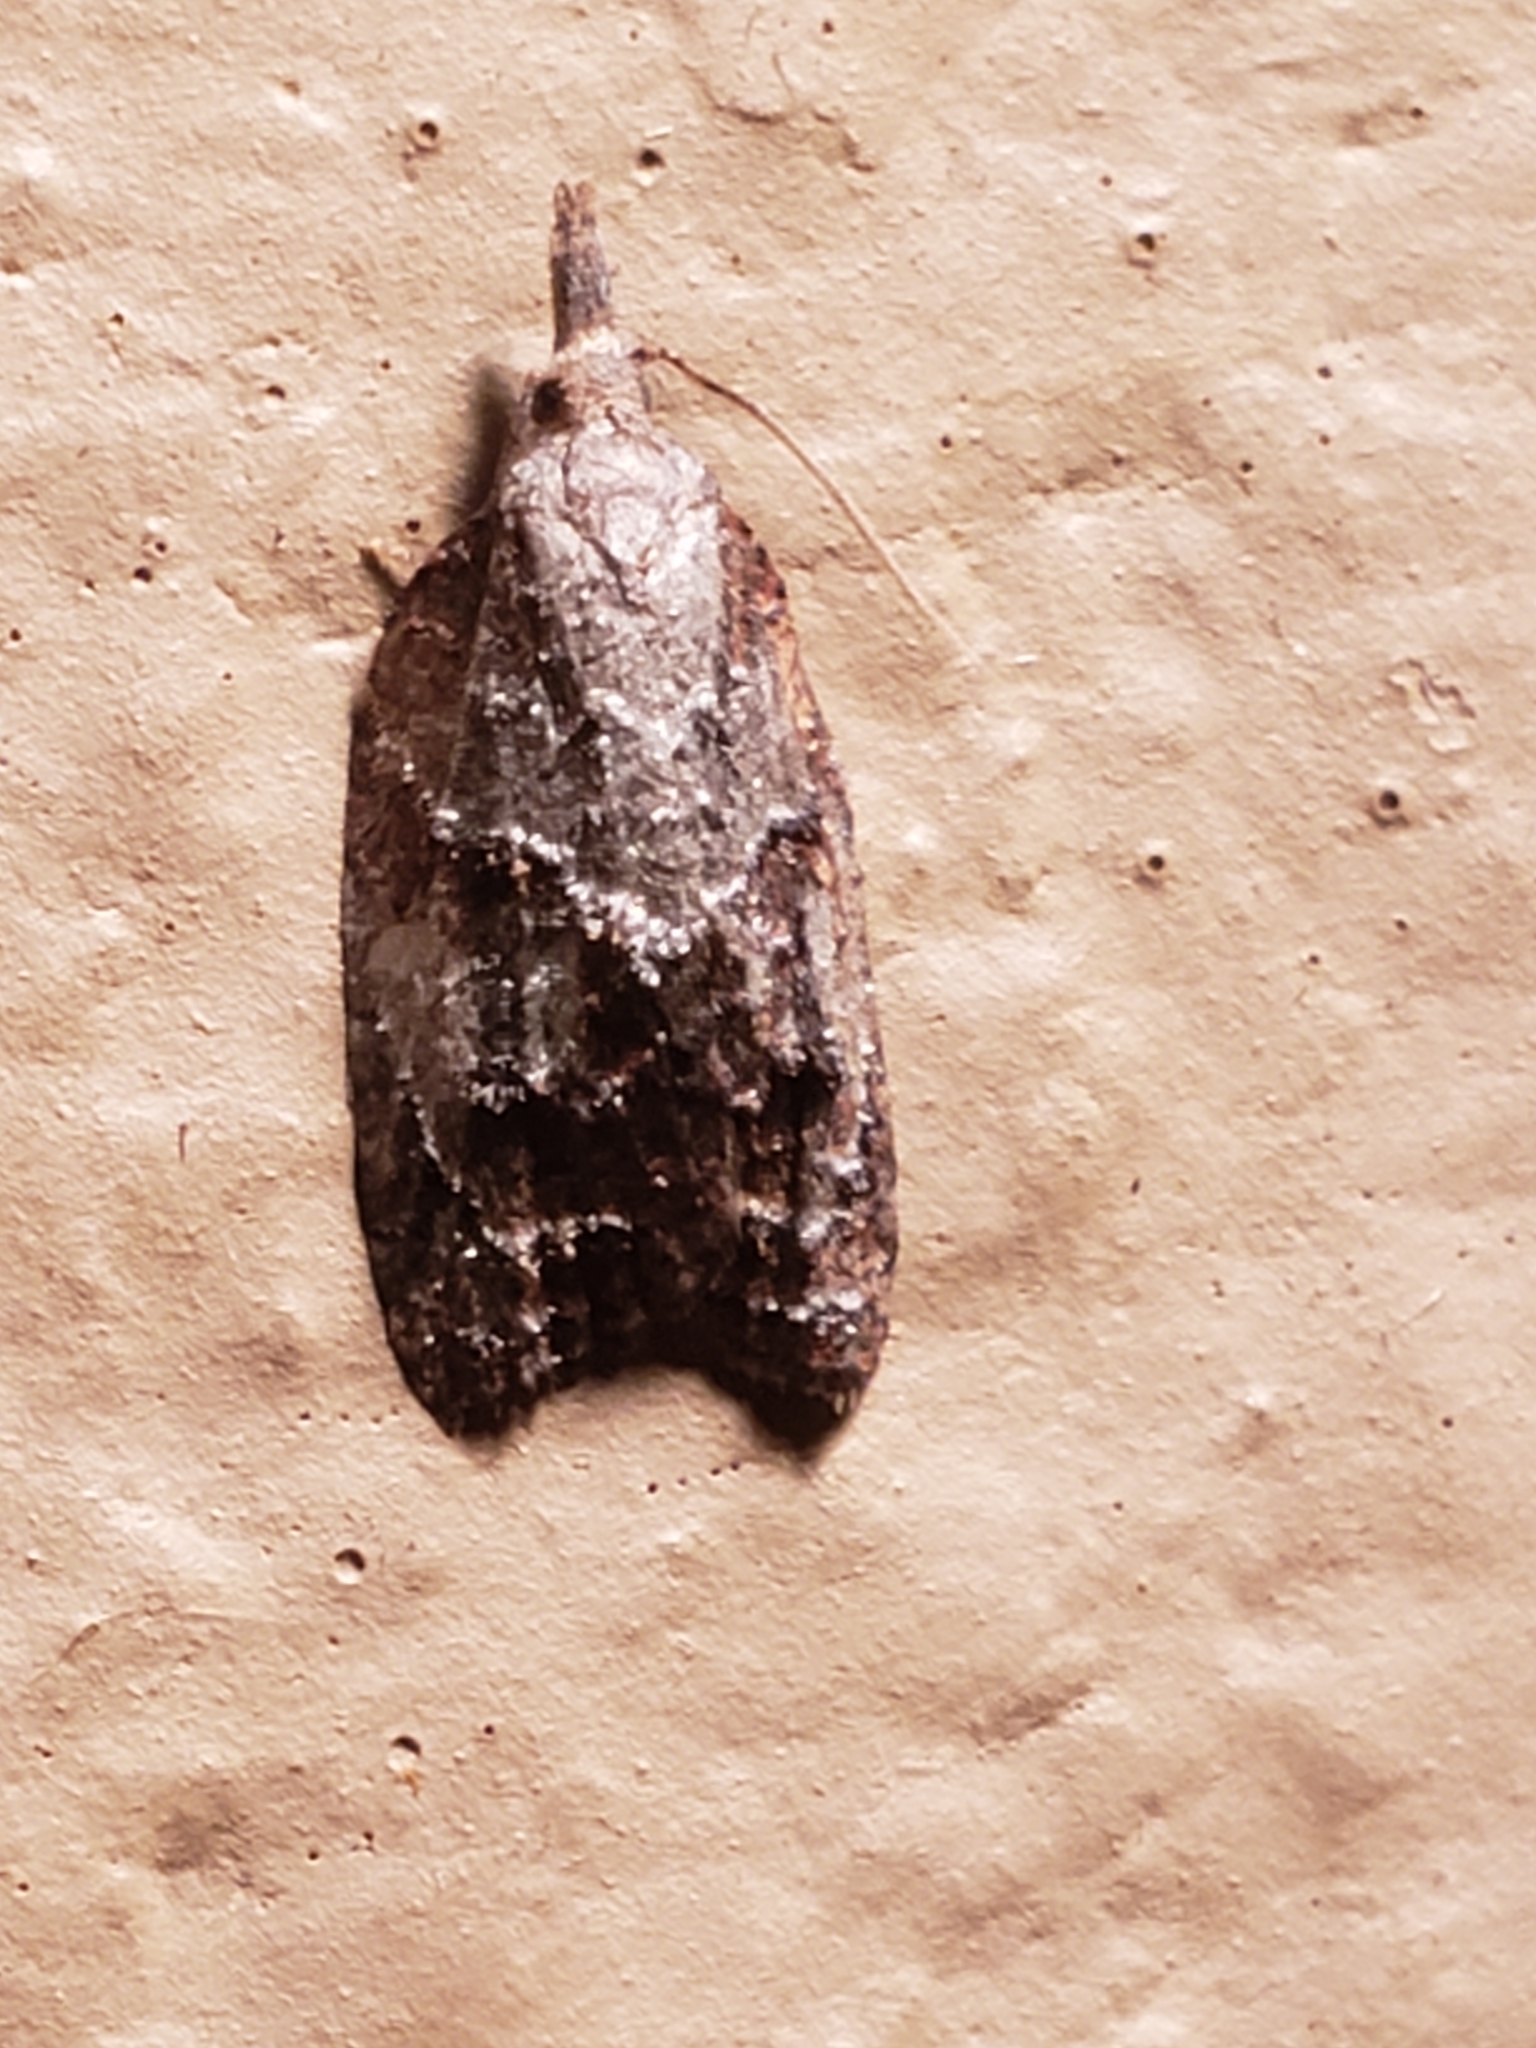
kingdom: Animalia
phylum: Arthropoda
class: Insecta
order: Lepidoptera
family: Tortricidae
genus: Platynota
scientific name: Platynota idaeusalis
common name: Tufted apple bud moth
